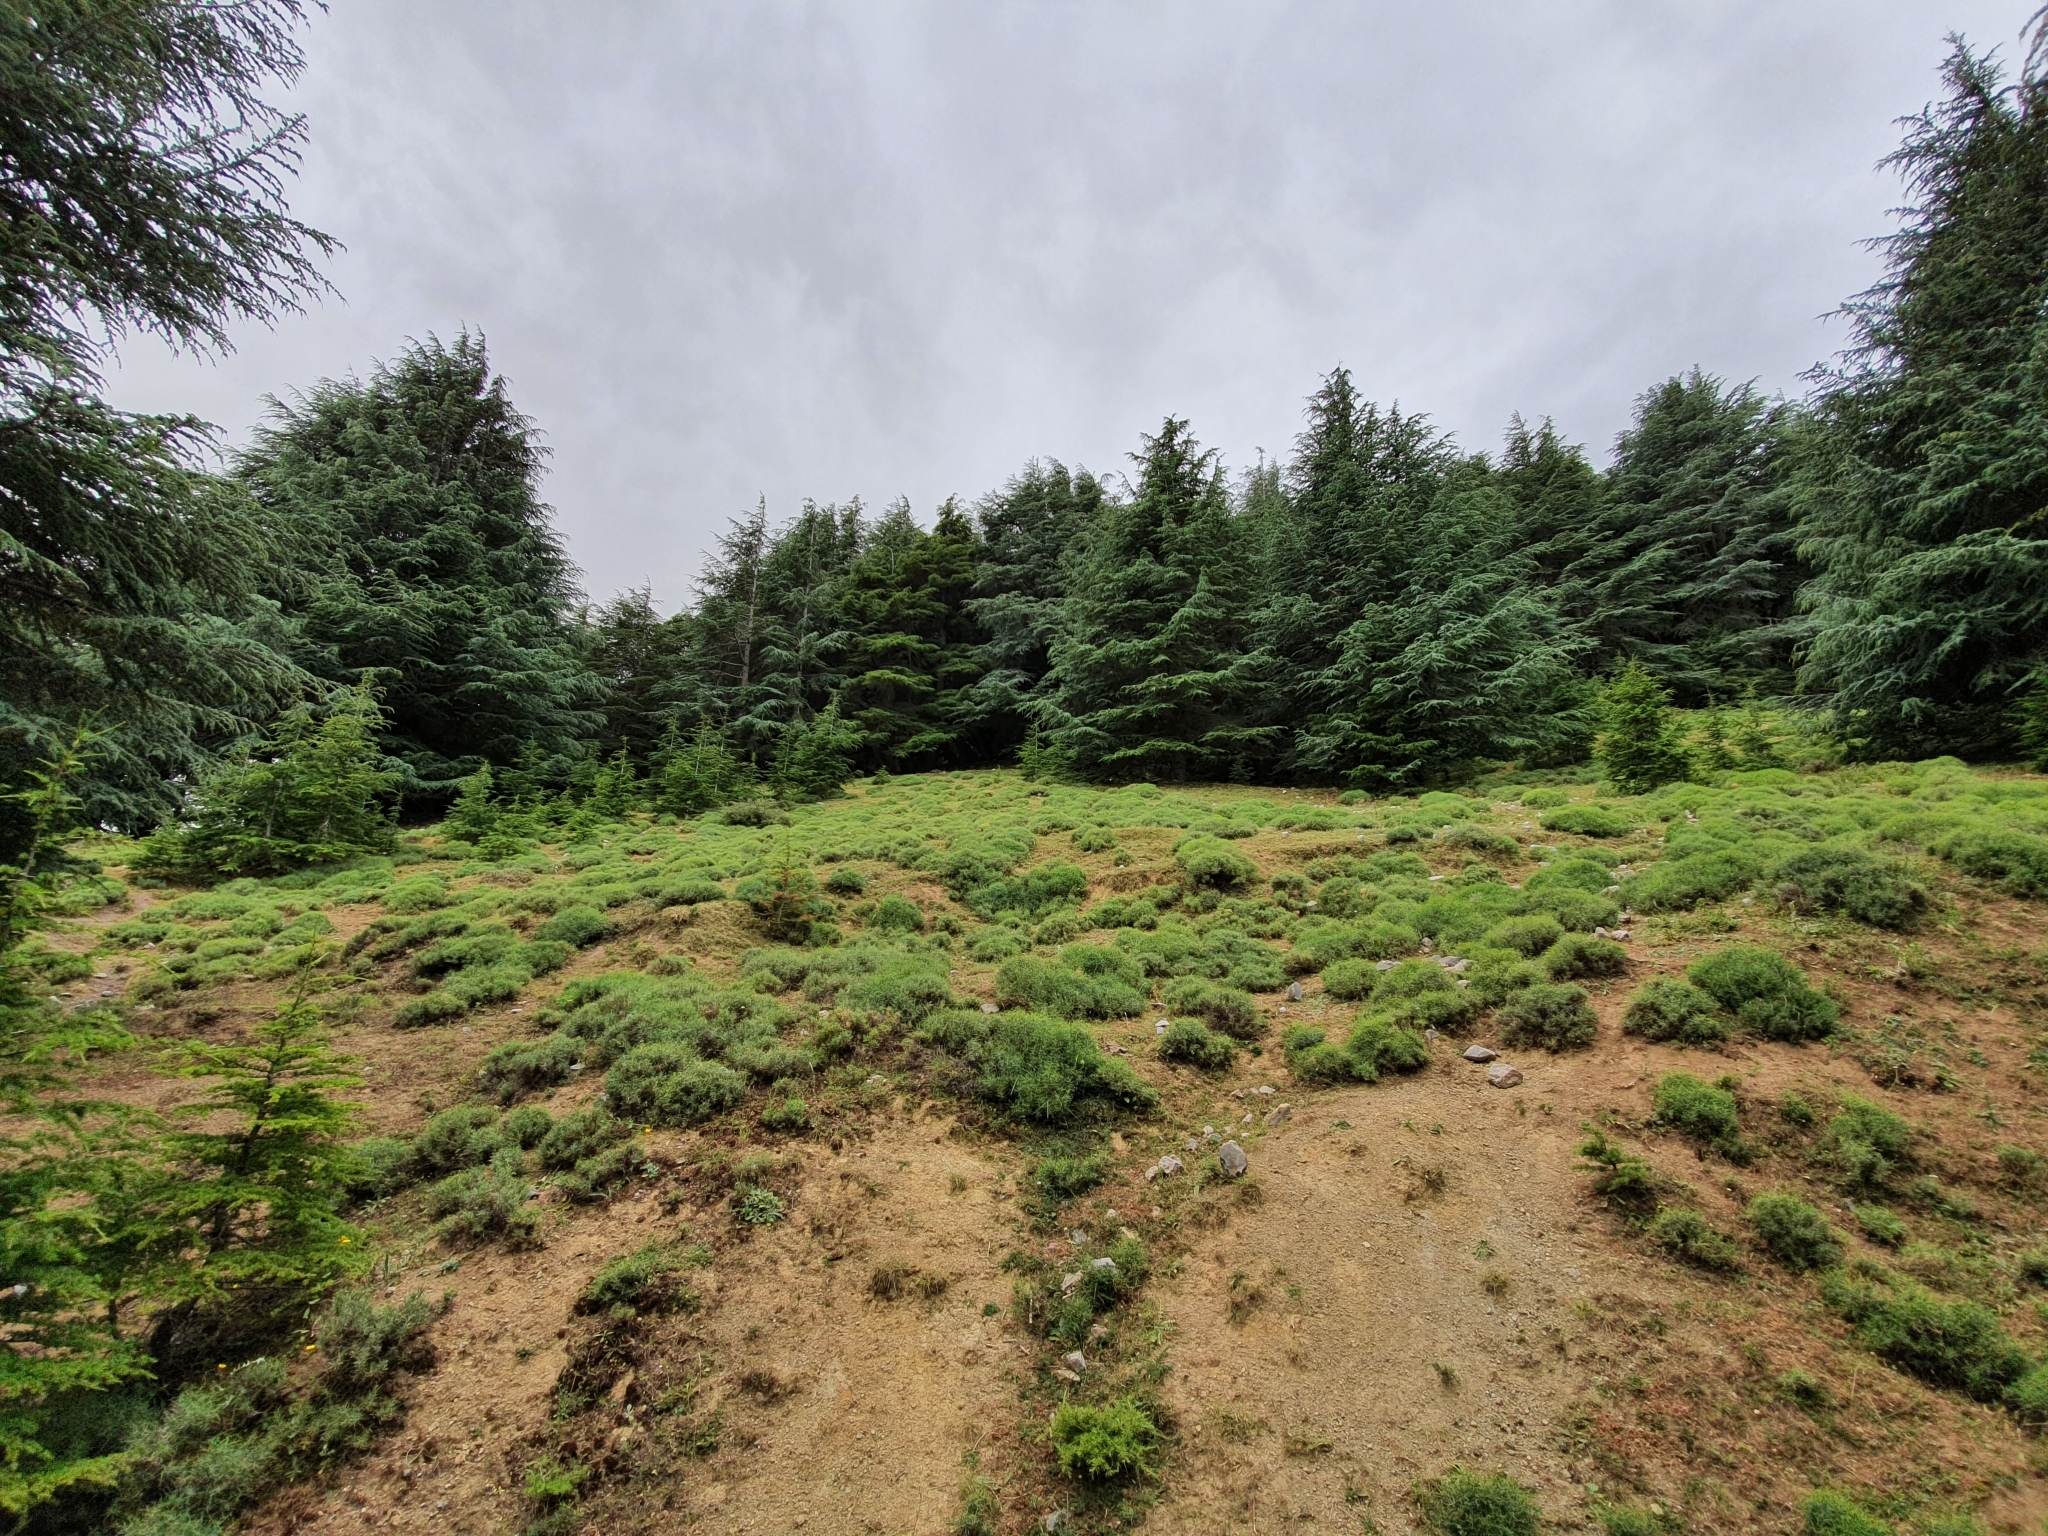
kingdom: Plantae
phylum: Tracheophyta
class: Pinopsida
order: Pinales
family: Pinaceae
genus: Cedrus
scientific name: Cedrus atlantica
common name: Atlas cedar
